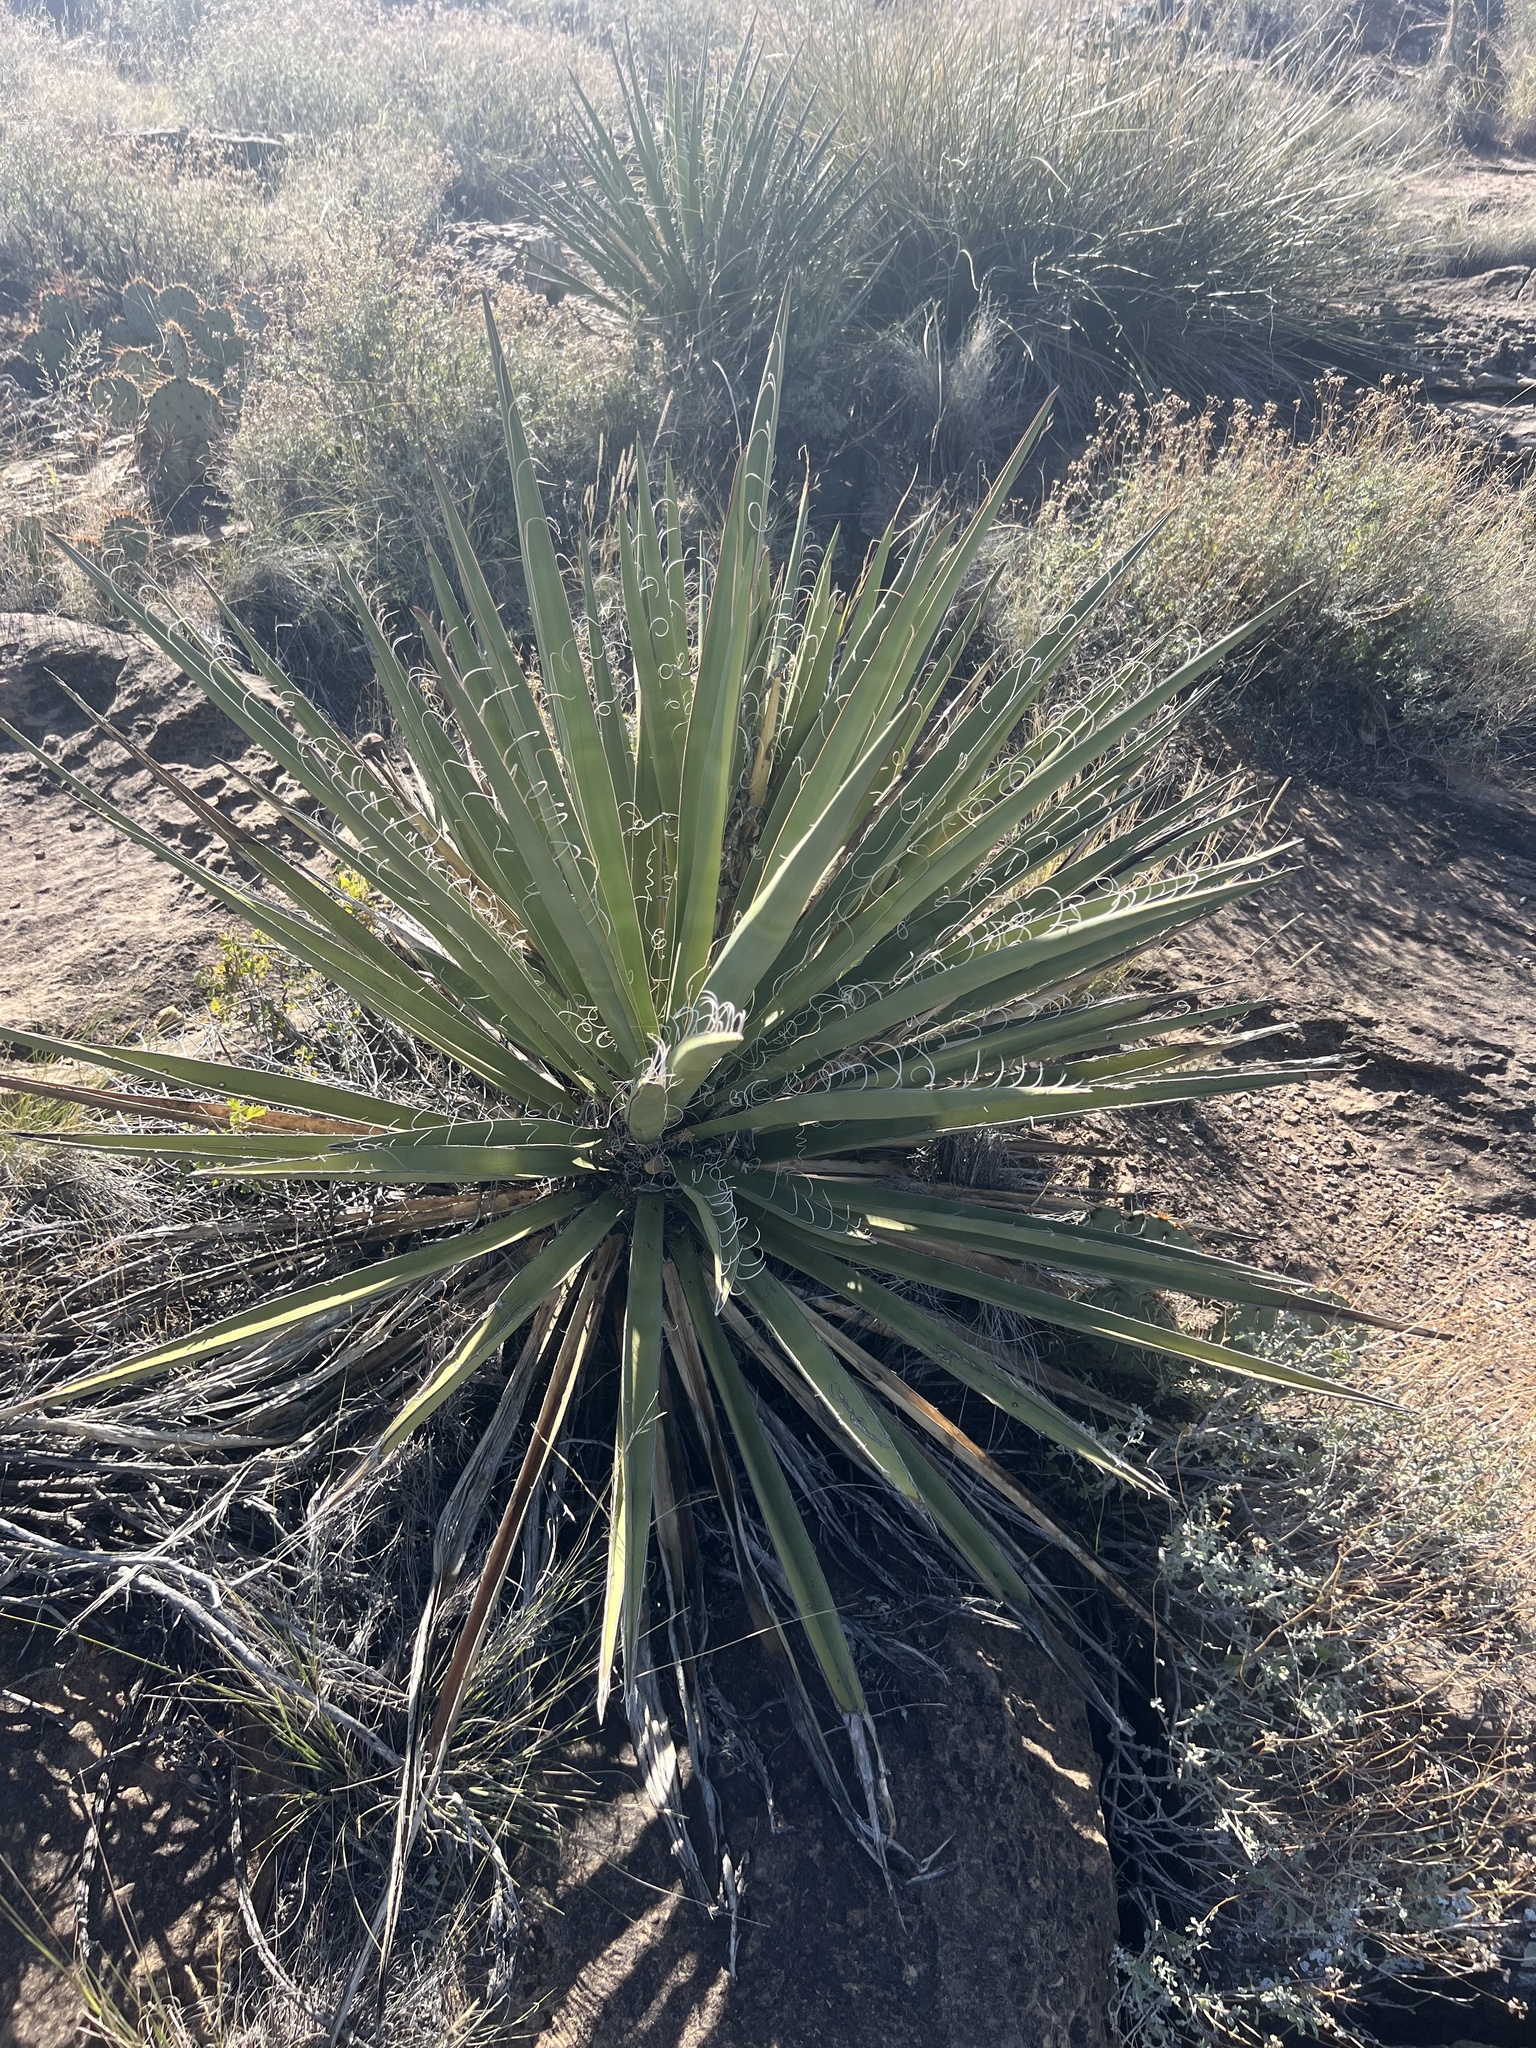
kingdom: Plantae
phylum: Tracheophyta
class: Liliopsida
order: Asparagales
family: Asparagaceae
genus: Yucca
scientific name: Yucca baccata
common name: Banana yucca
